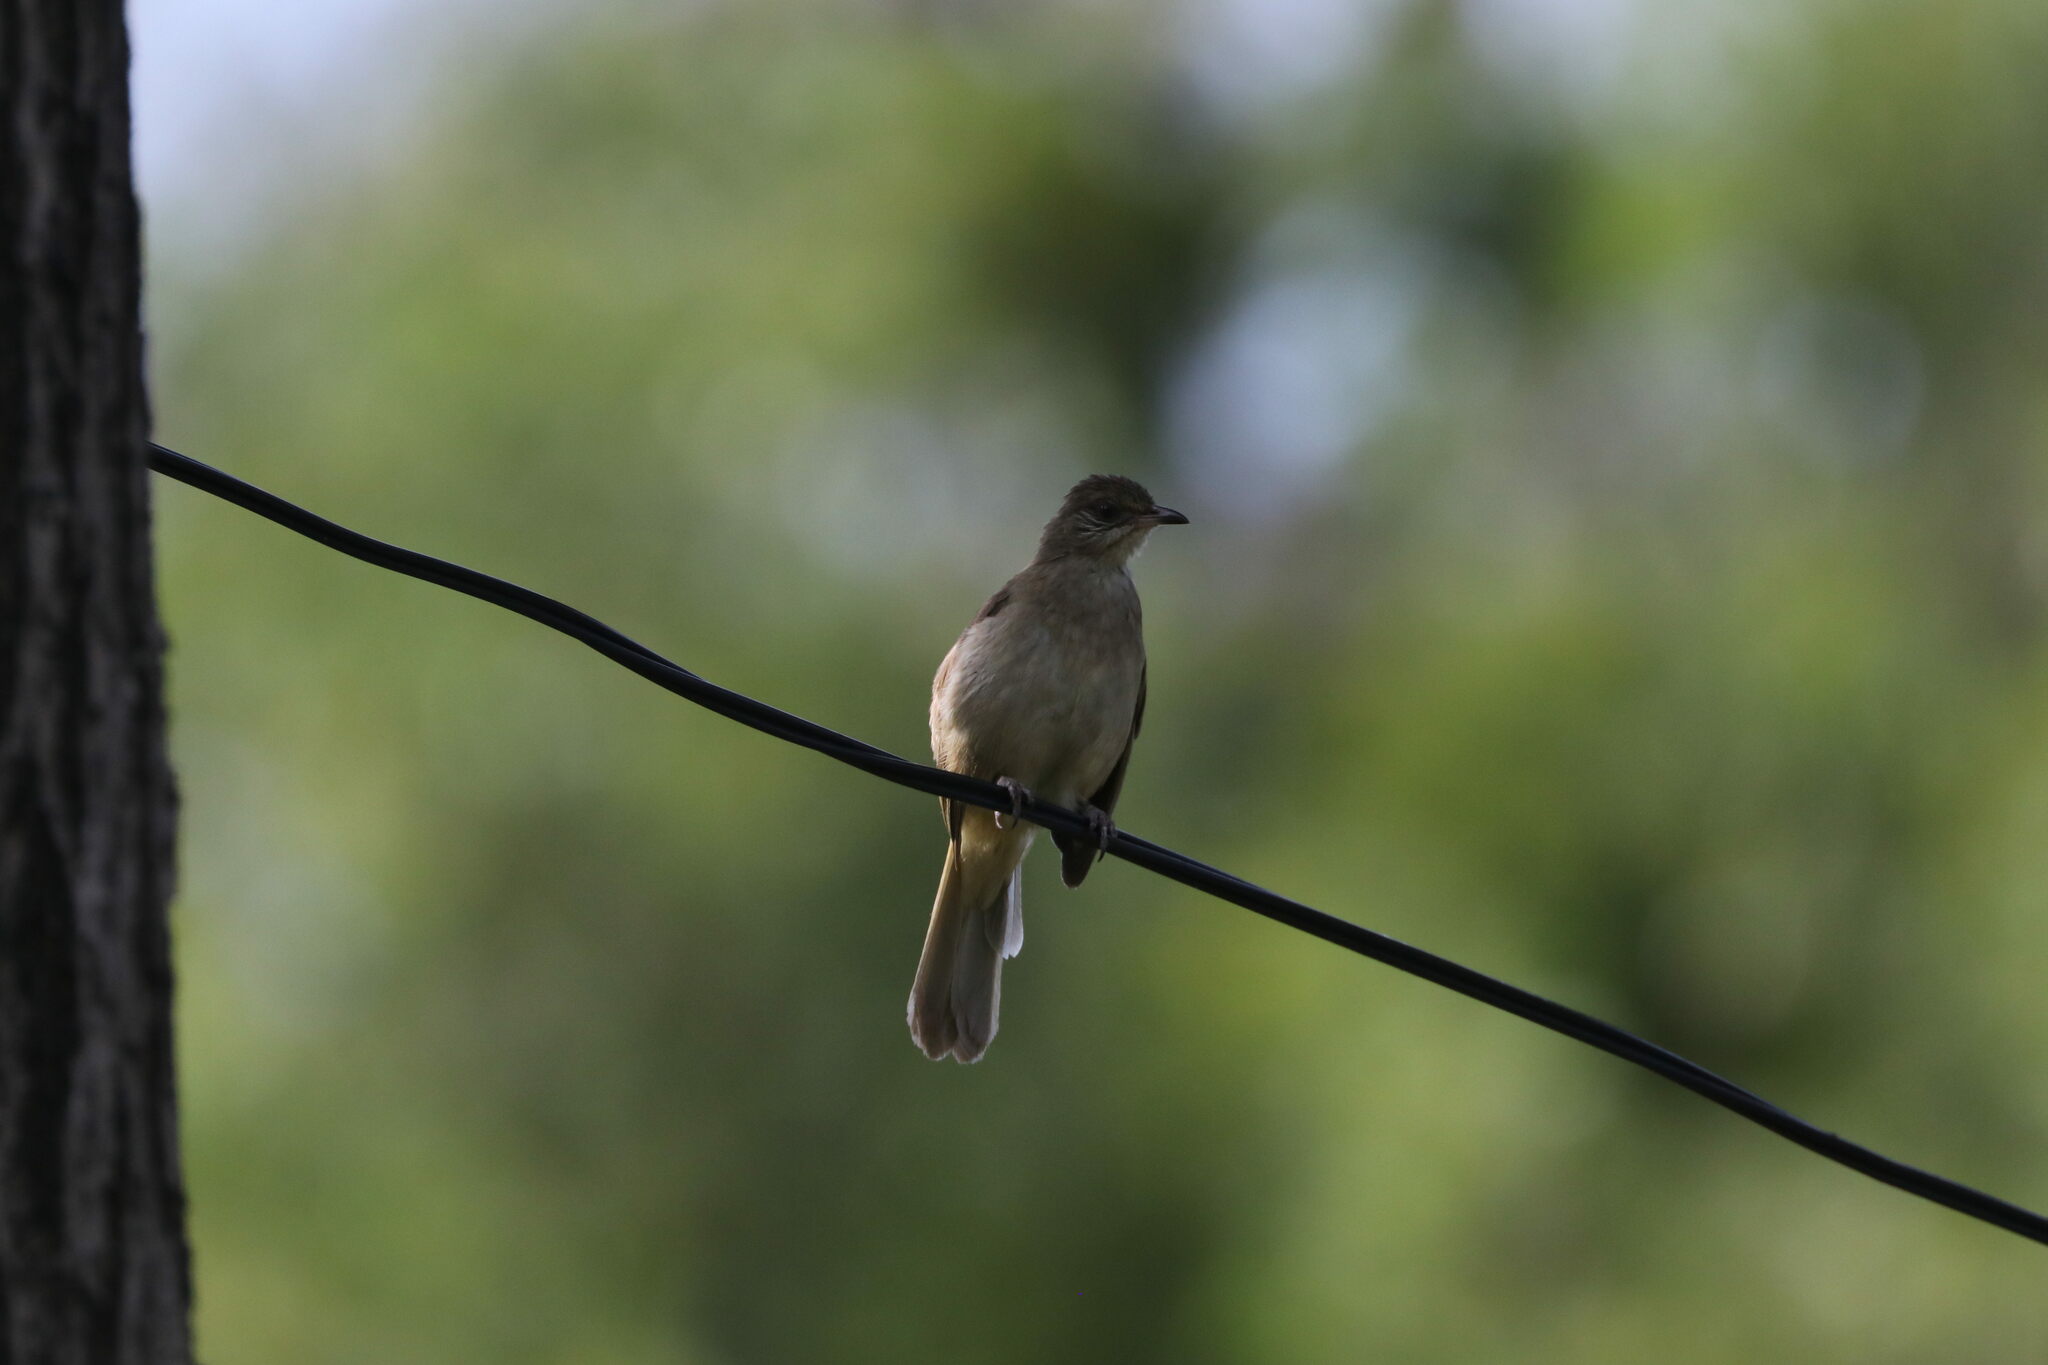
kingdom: Animalia
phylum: Chordata
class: Aves
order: Passeriformes
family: Pycnonotidae
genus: Pycnonotus
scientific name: Pycnonotus blanfordi
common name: Streak-eared bulbul
